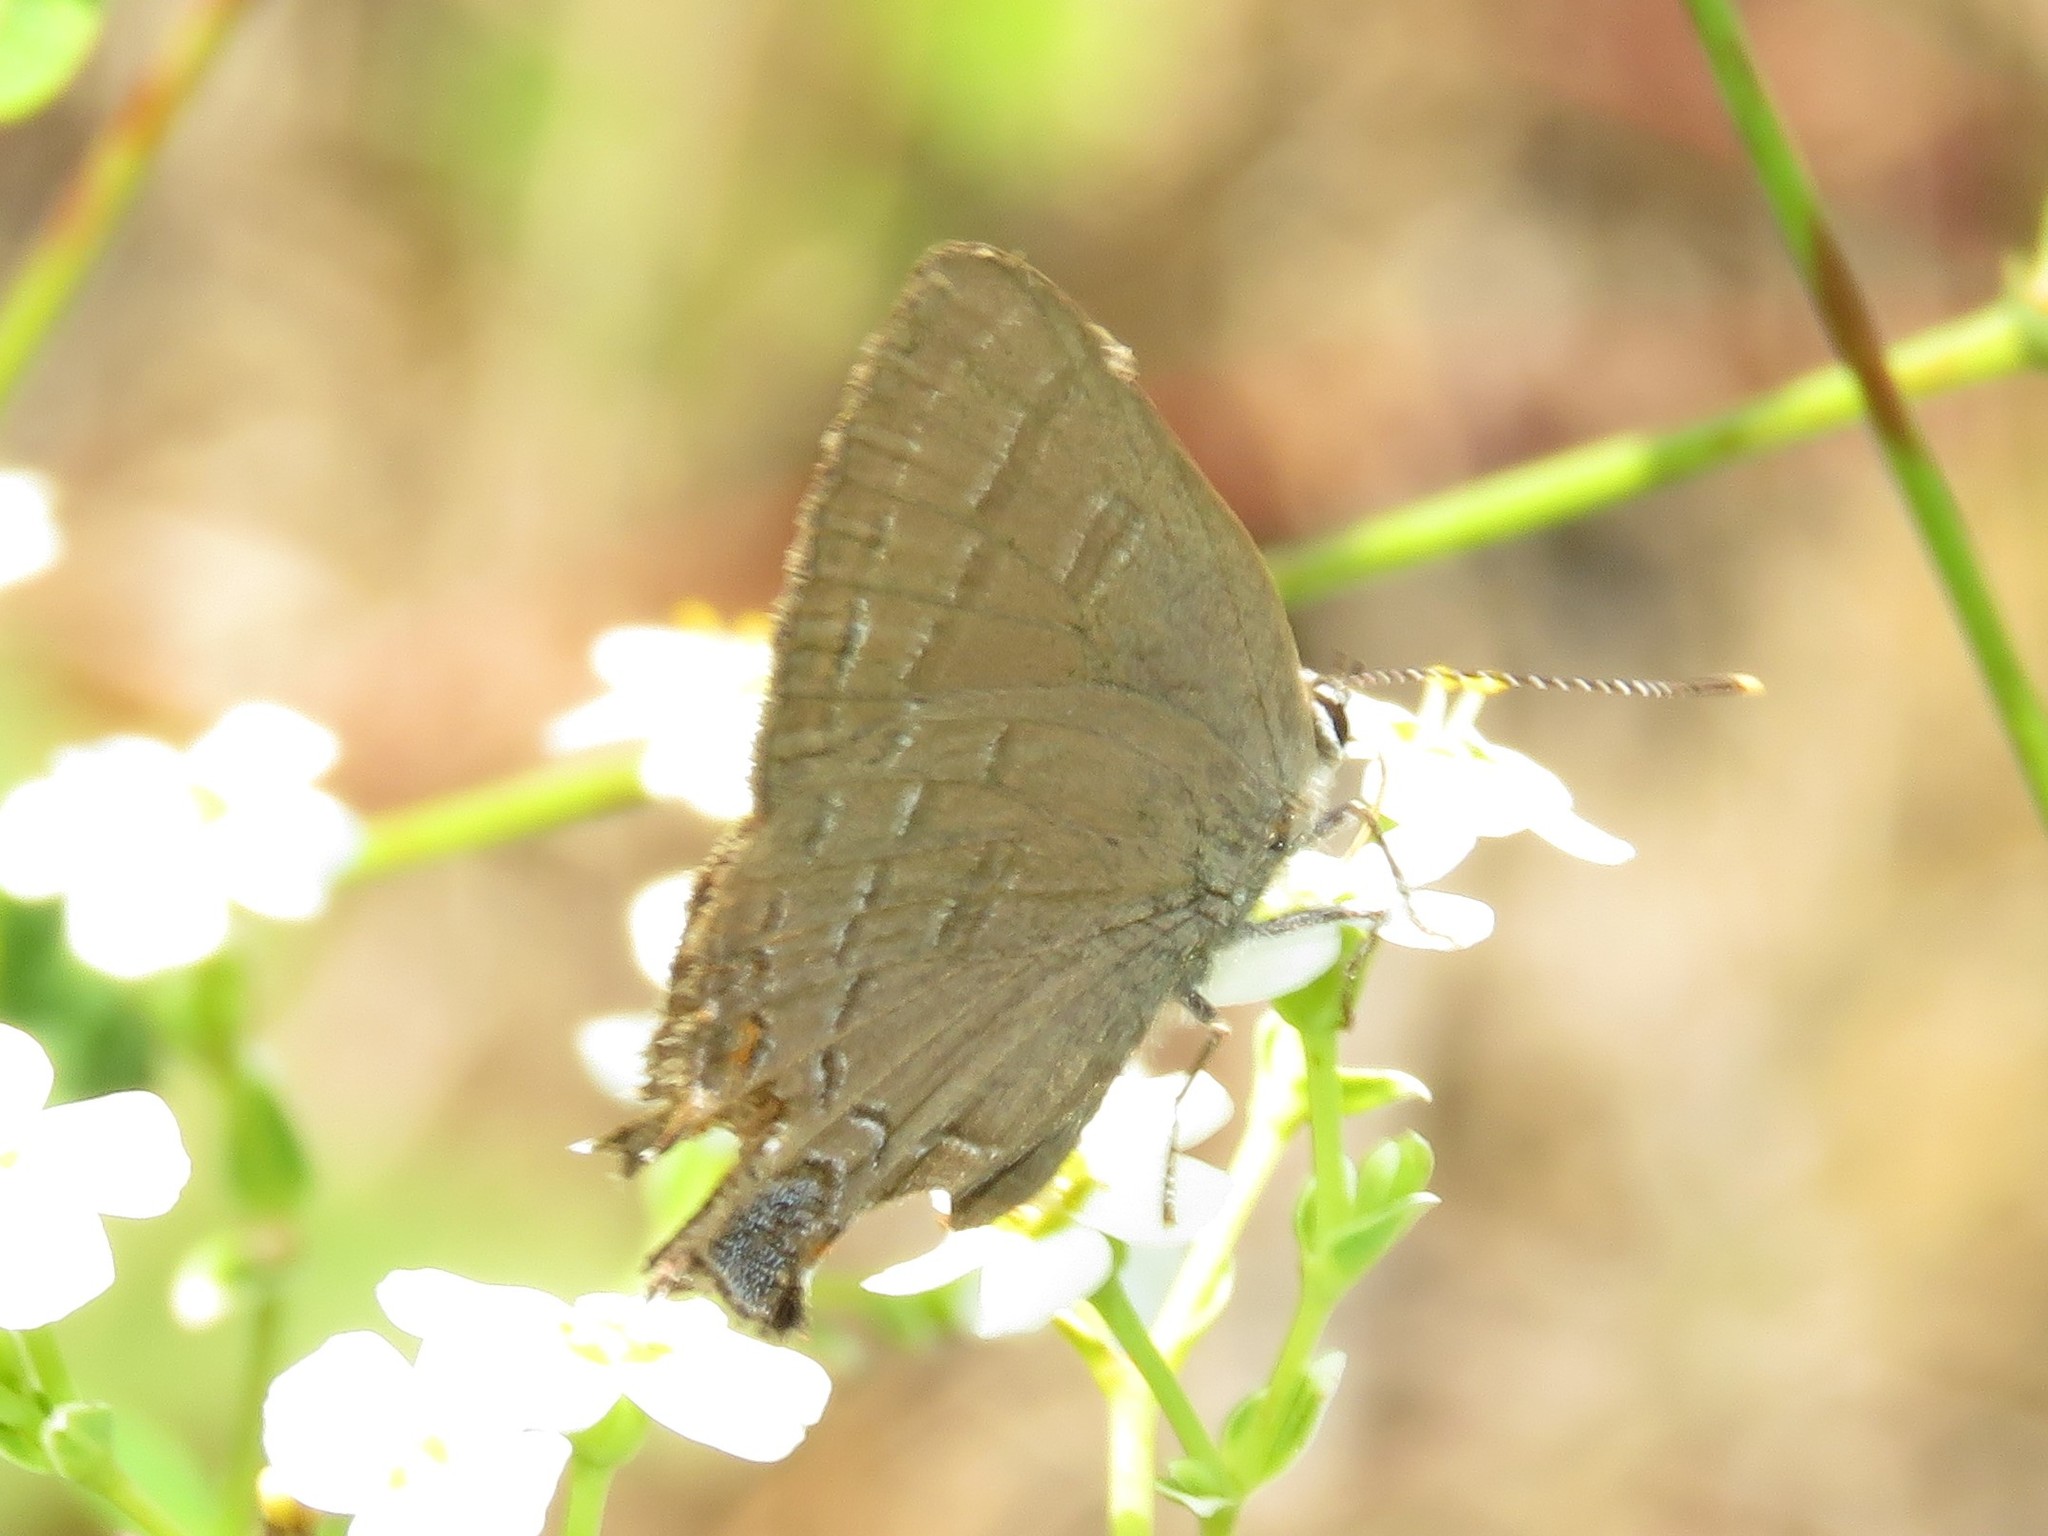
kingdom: Animalia
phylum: Arthropoda
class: Insecta
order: Lepidoptera
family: Lycaenidae
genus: Satyrium
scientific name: Satyrium calanus
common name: Banded hairstreak
